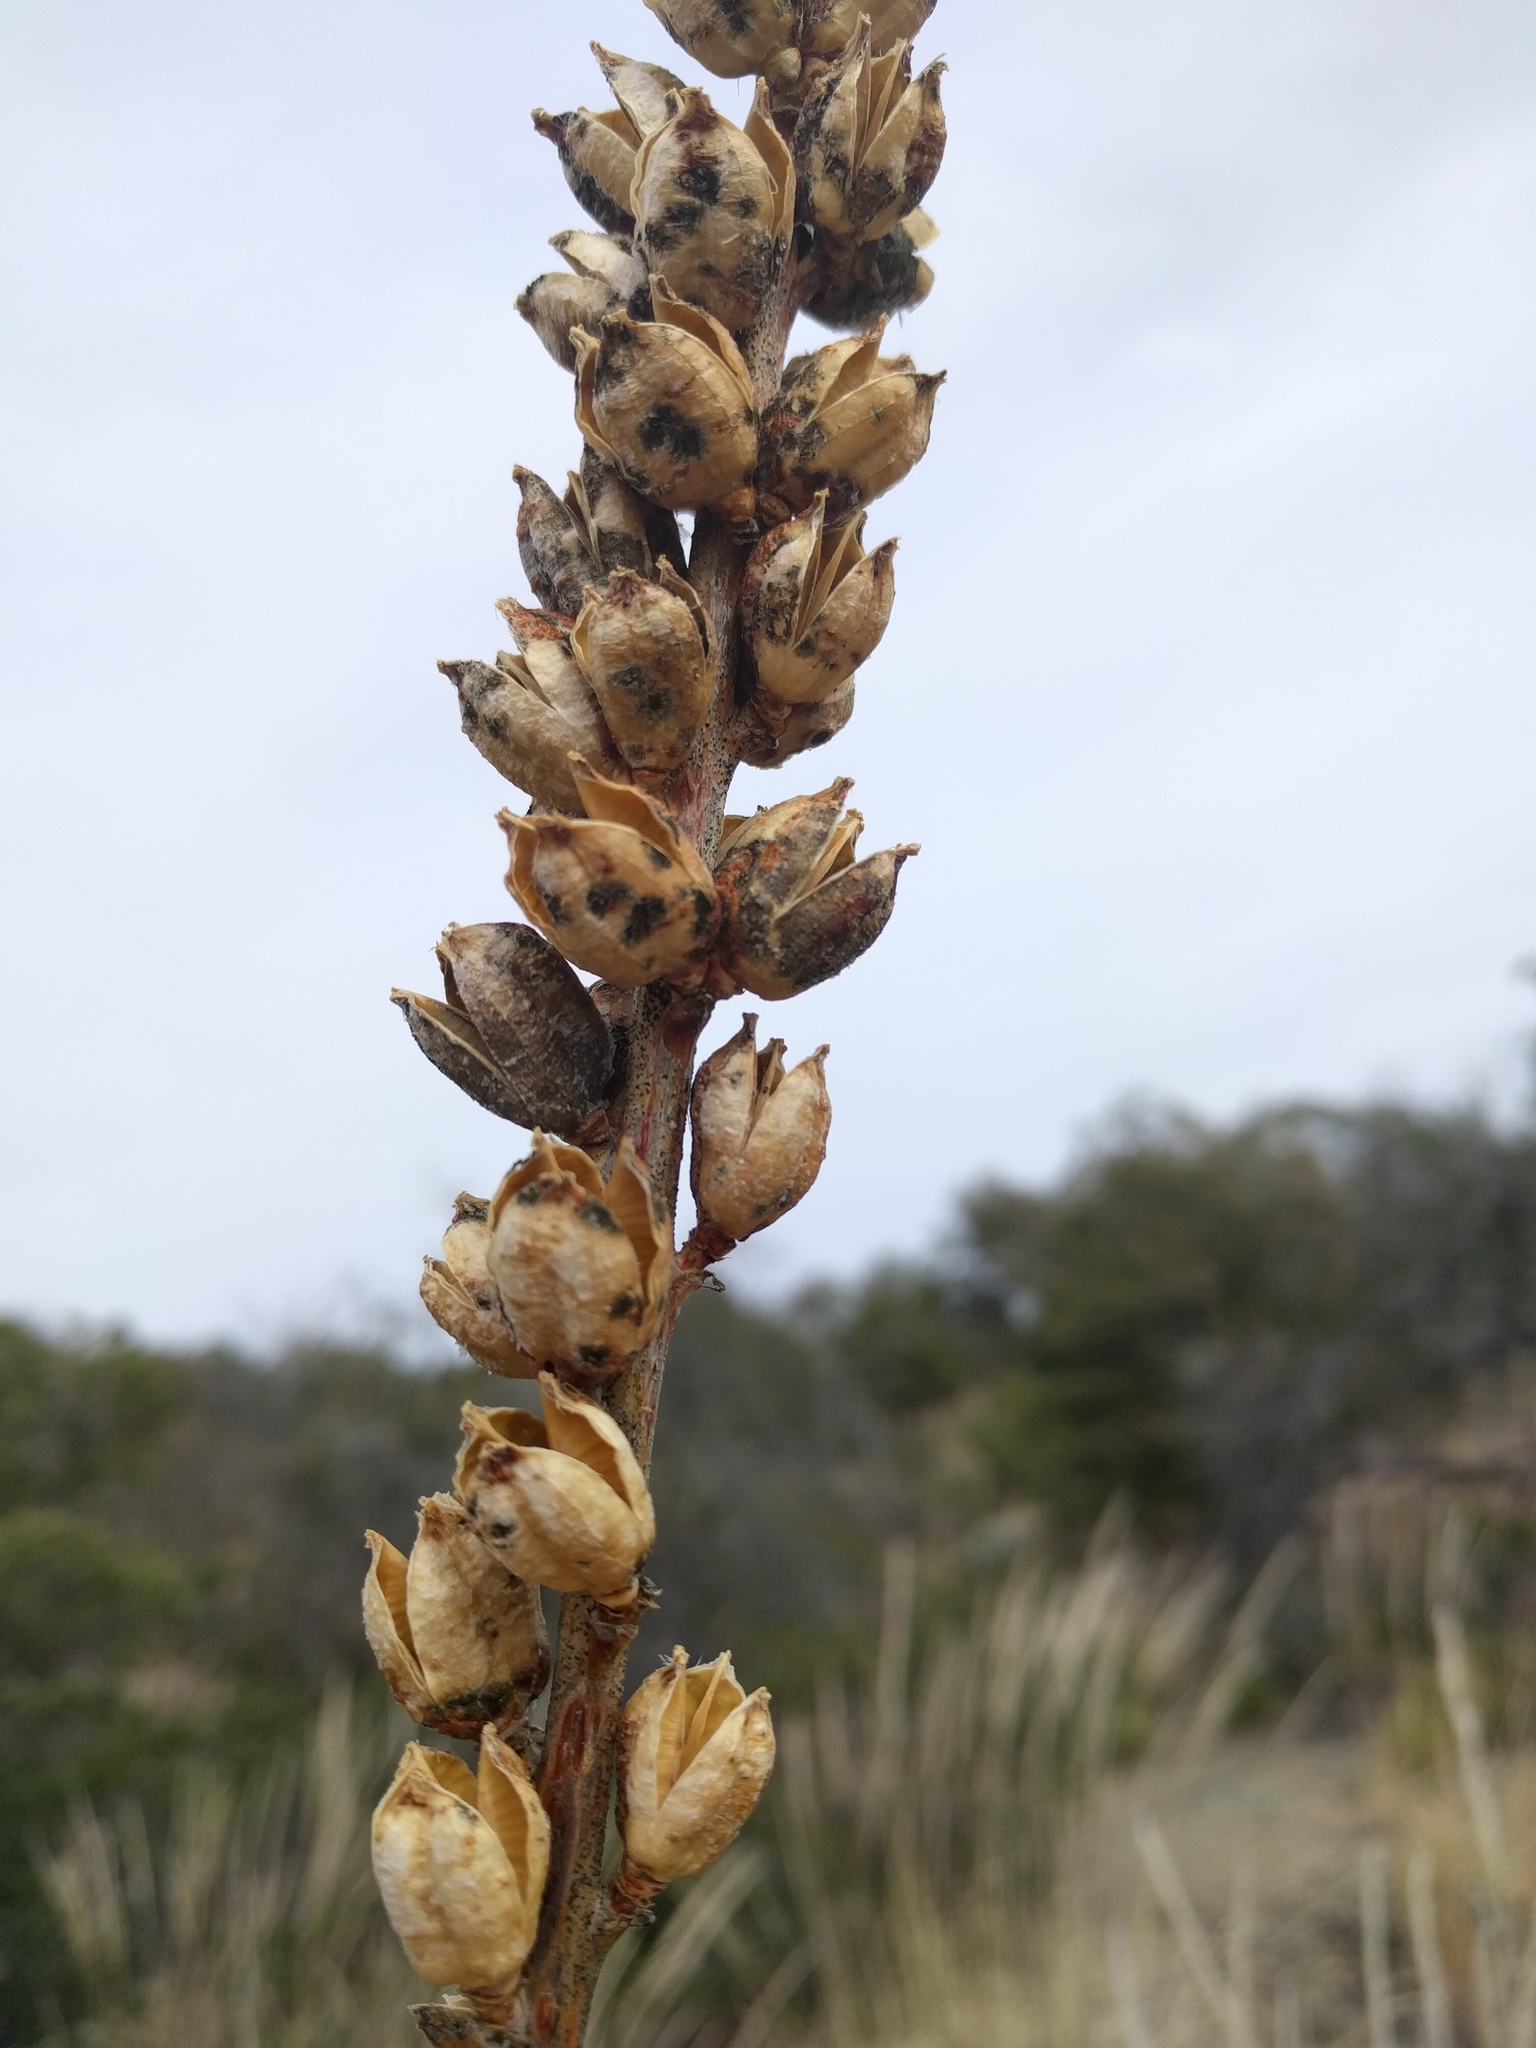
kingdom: Plantae
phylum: Tracheophyta
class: Liliopsida
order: Asparagales
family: Asparagaceae
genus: Agave
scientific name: Agave schottii
